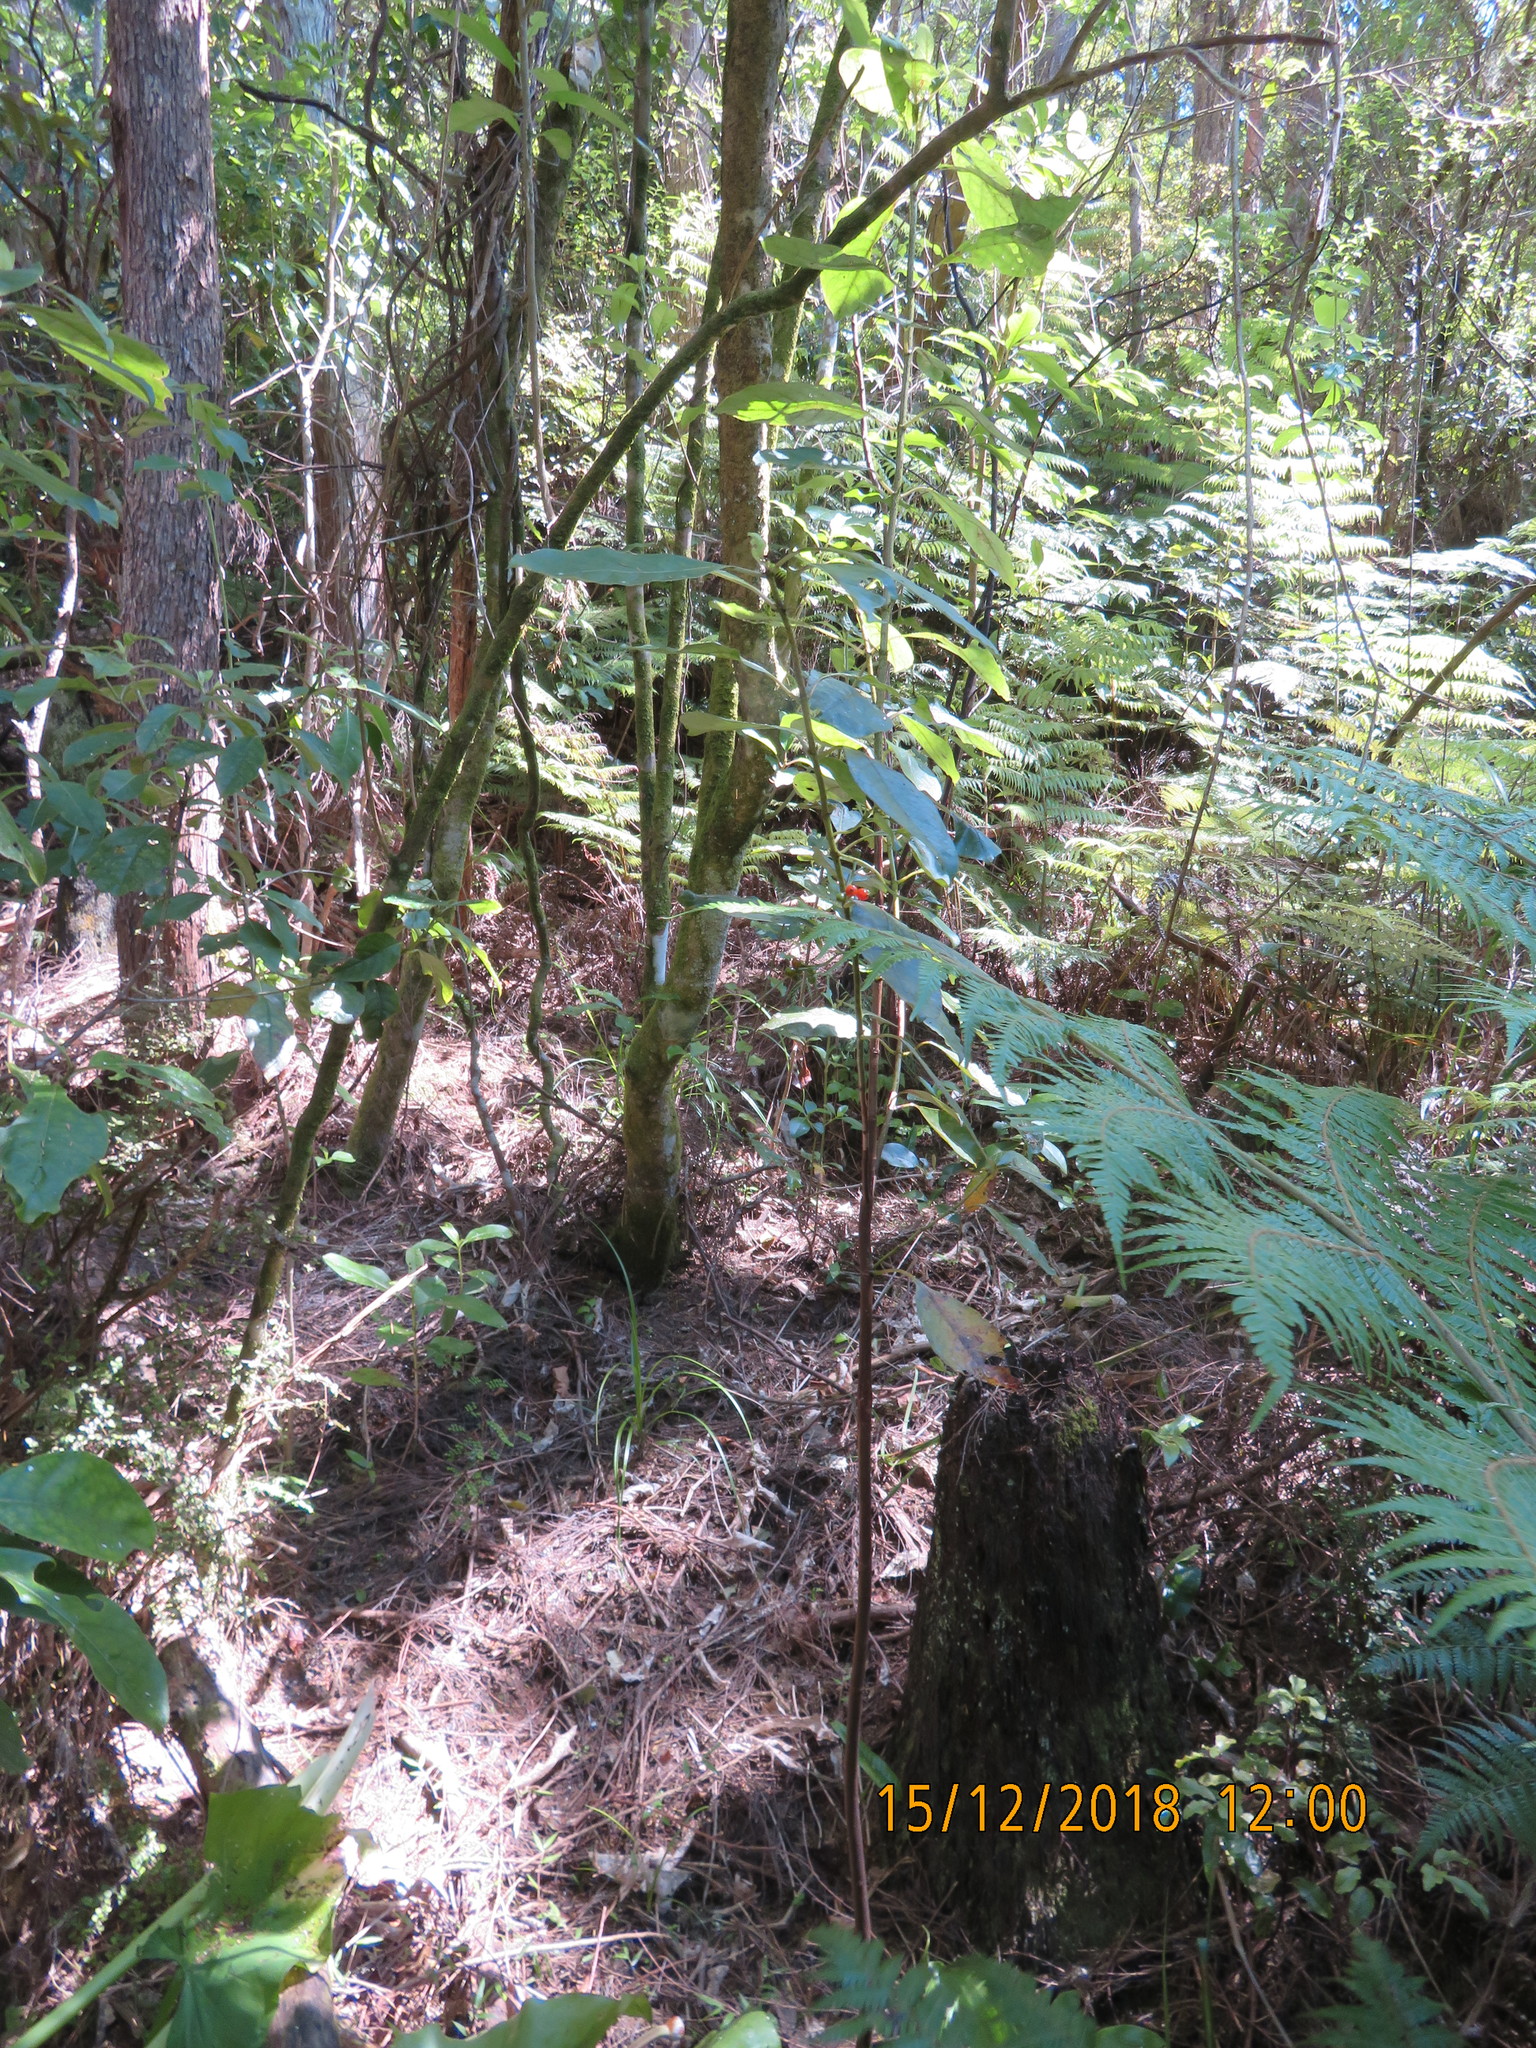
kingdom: Plantae
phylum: Tracheophyta
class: Magnoliopsida
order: Gentianales
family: Rubiaceae
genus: Coprosma
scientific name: Coprosma autumnalis
